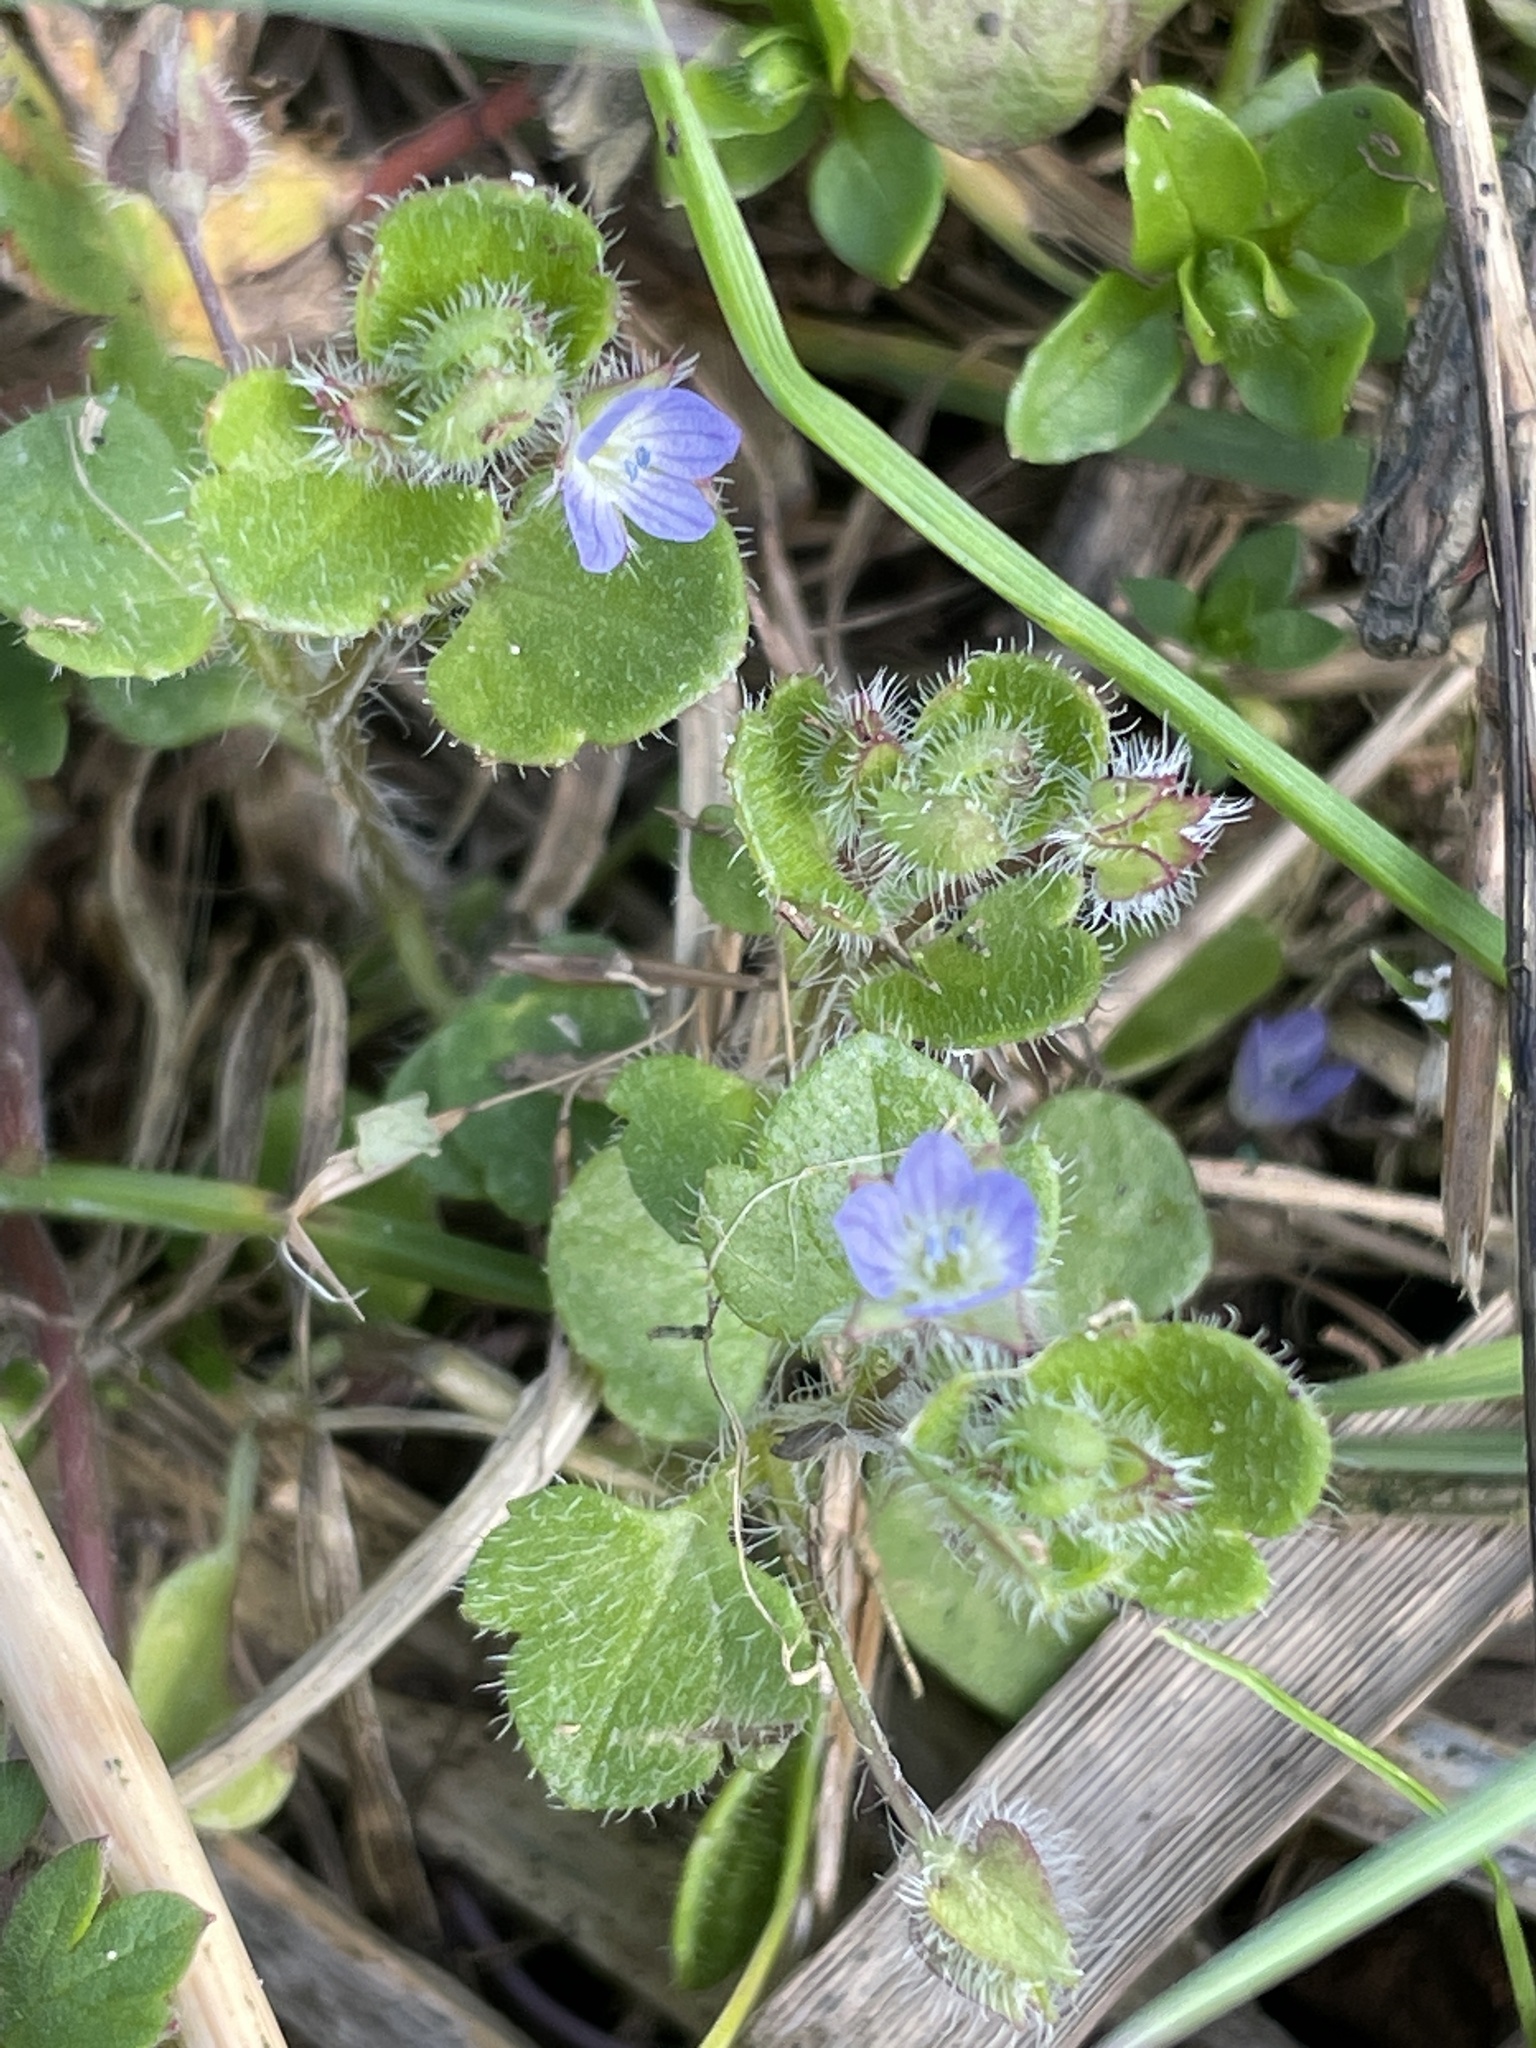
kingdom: Plantae
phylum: Tracheophyta
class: Magnoliopsida
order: Lamiales
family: Plantaginaceae
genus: Veronica
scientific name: Veronica hederifolia
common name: Ivy-leaved speedwell
